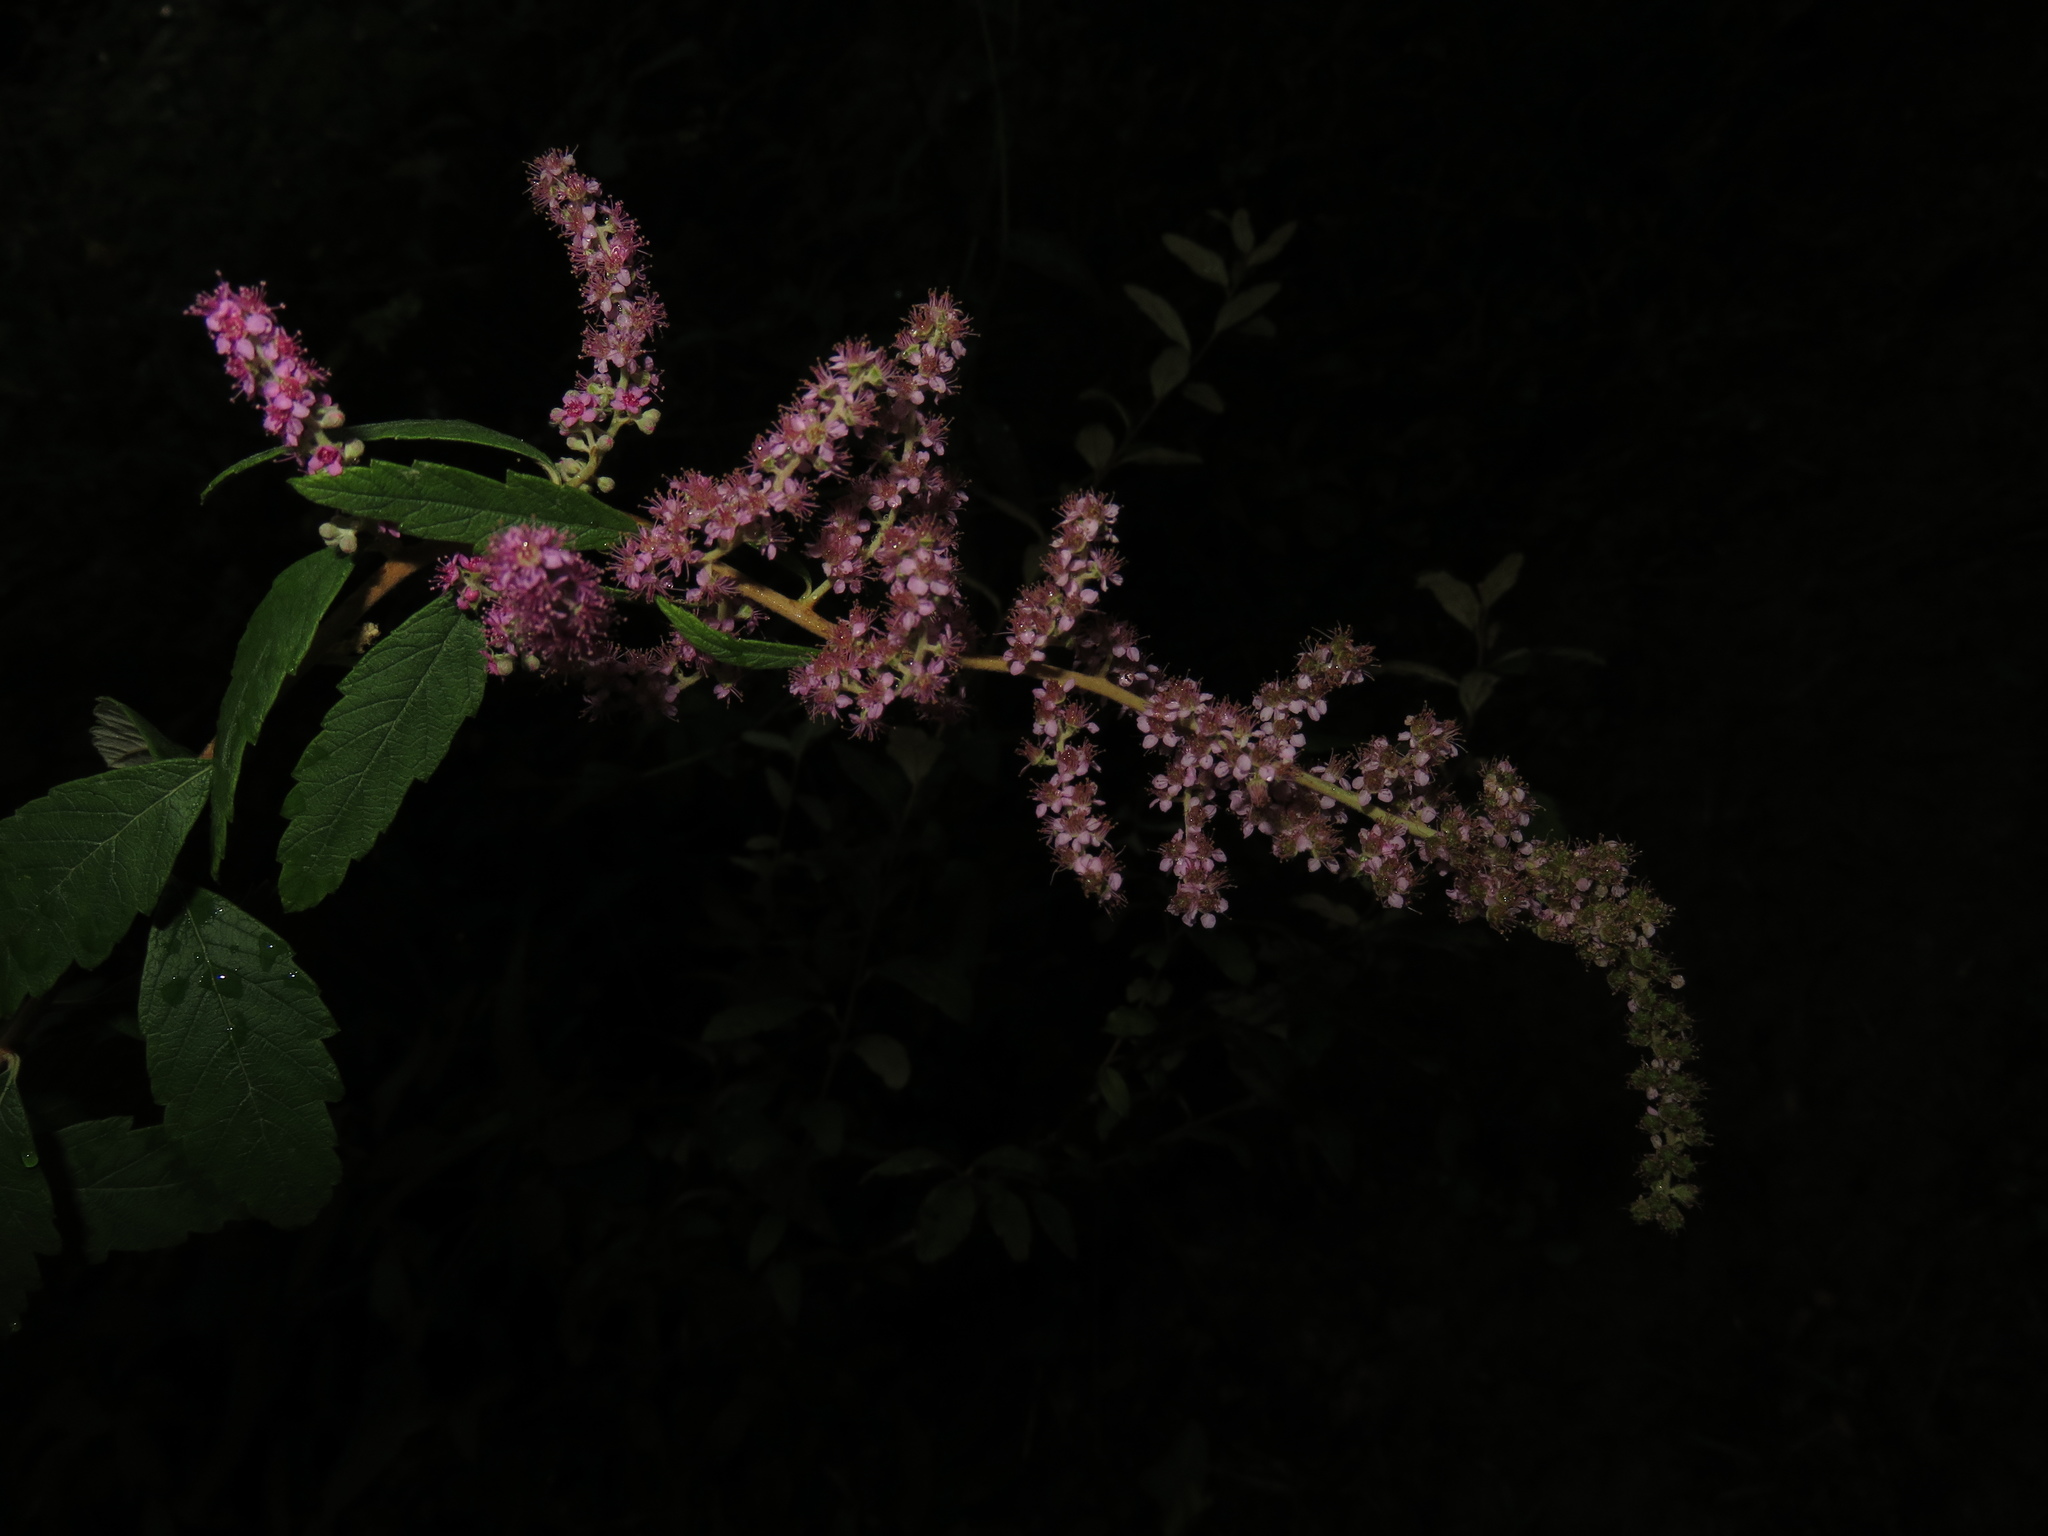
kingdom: Plantae
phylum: Tracheophyta
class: Magnoliopsida
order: Rosales
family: Rosaceae
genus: Spiraea
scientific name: Spiraea tomentosa
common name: Hardhack
